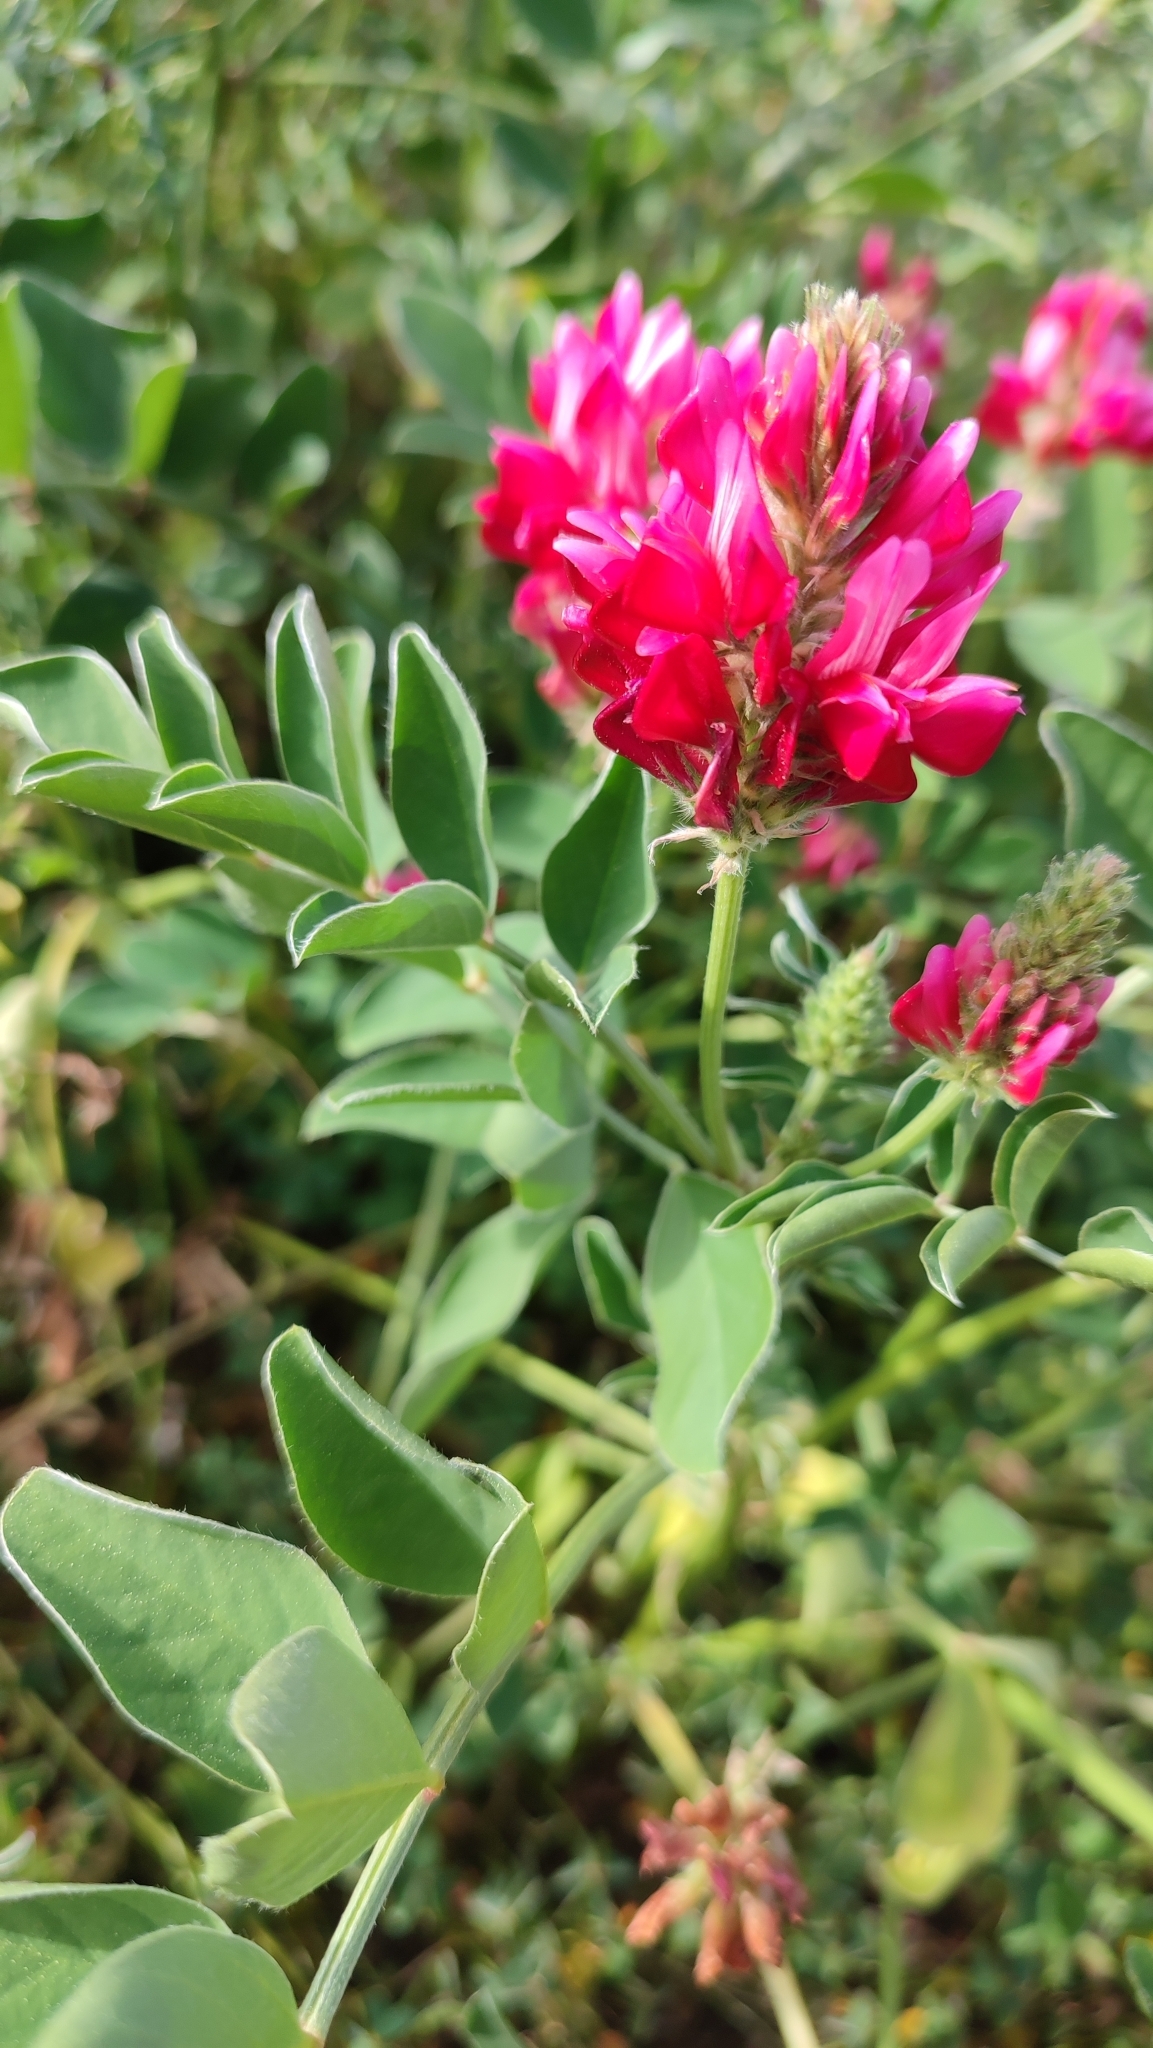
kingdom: Plantae
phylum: Tracheophyta
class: Magnoliopsida
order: Fabales
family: Fabaceae
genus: Sulla
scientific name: Sulla coronaria
